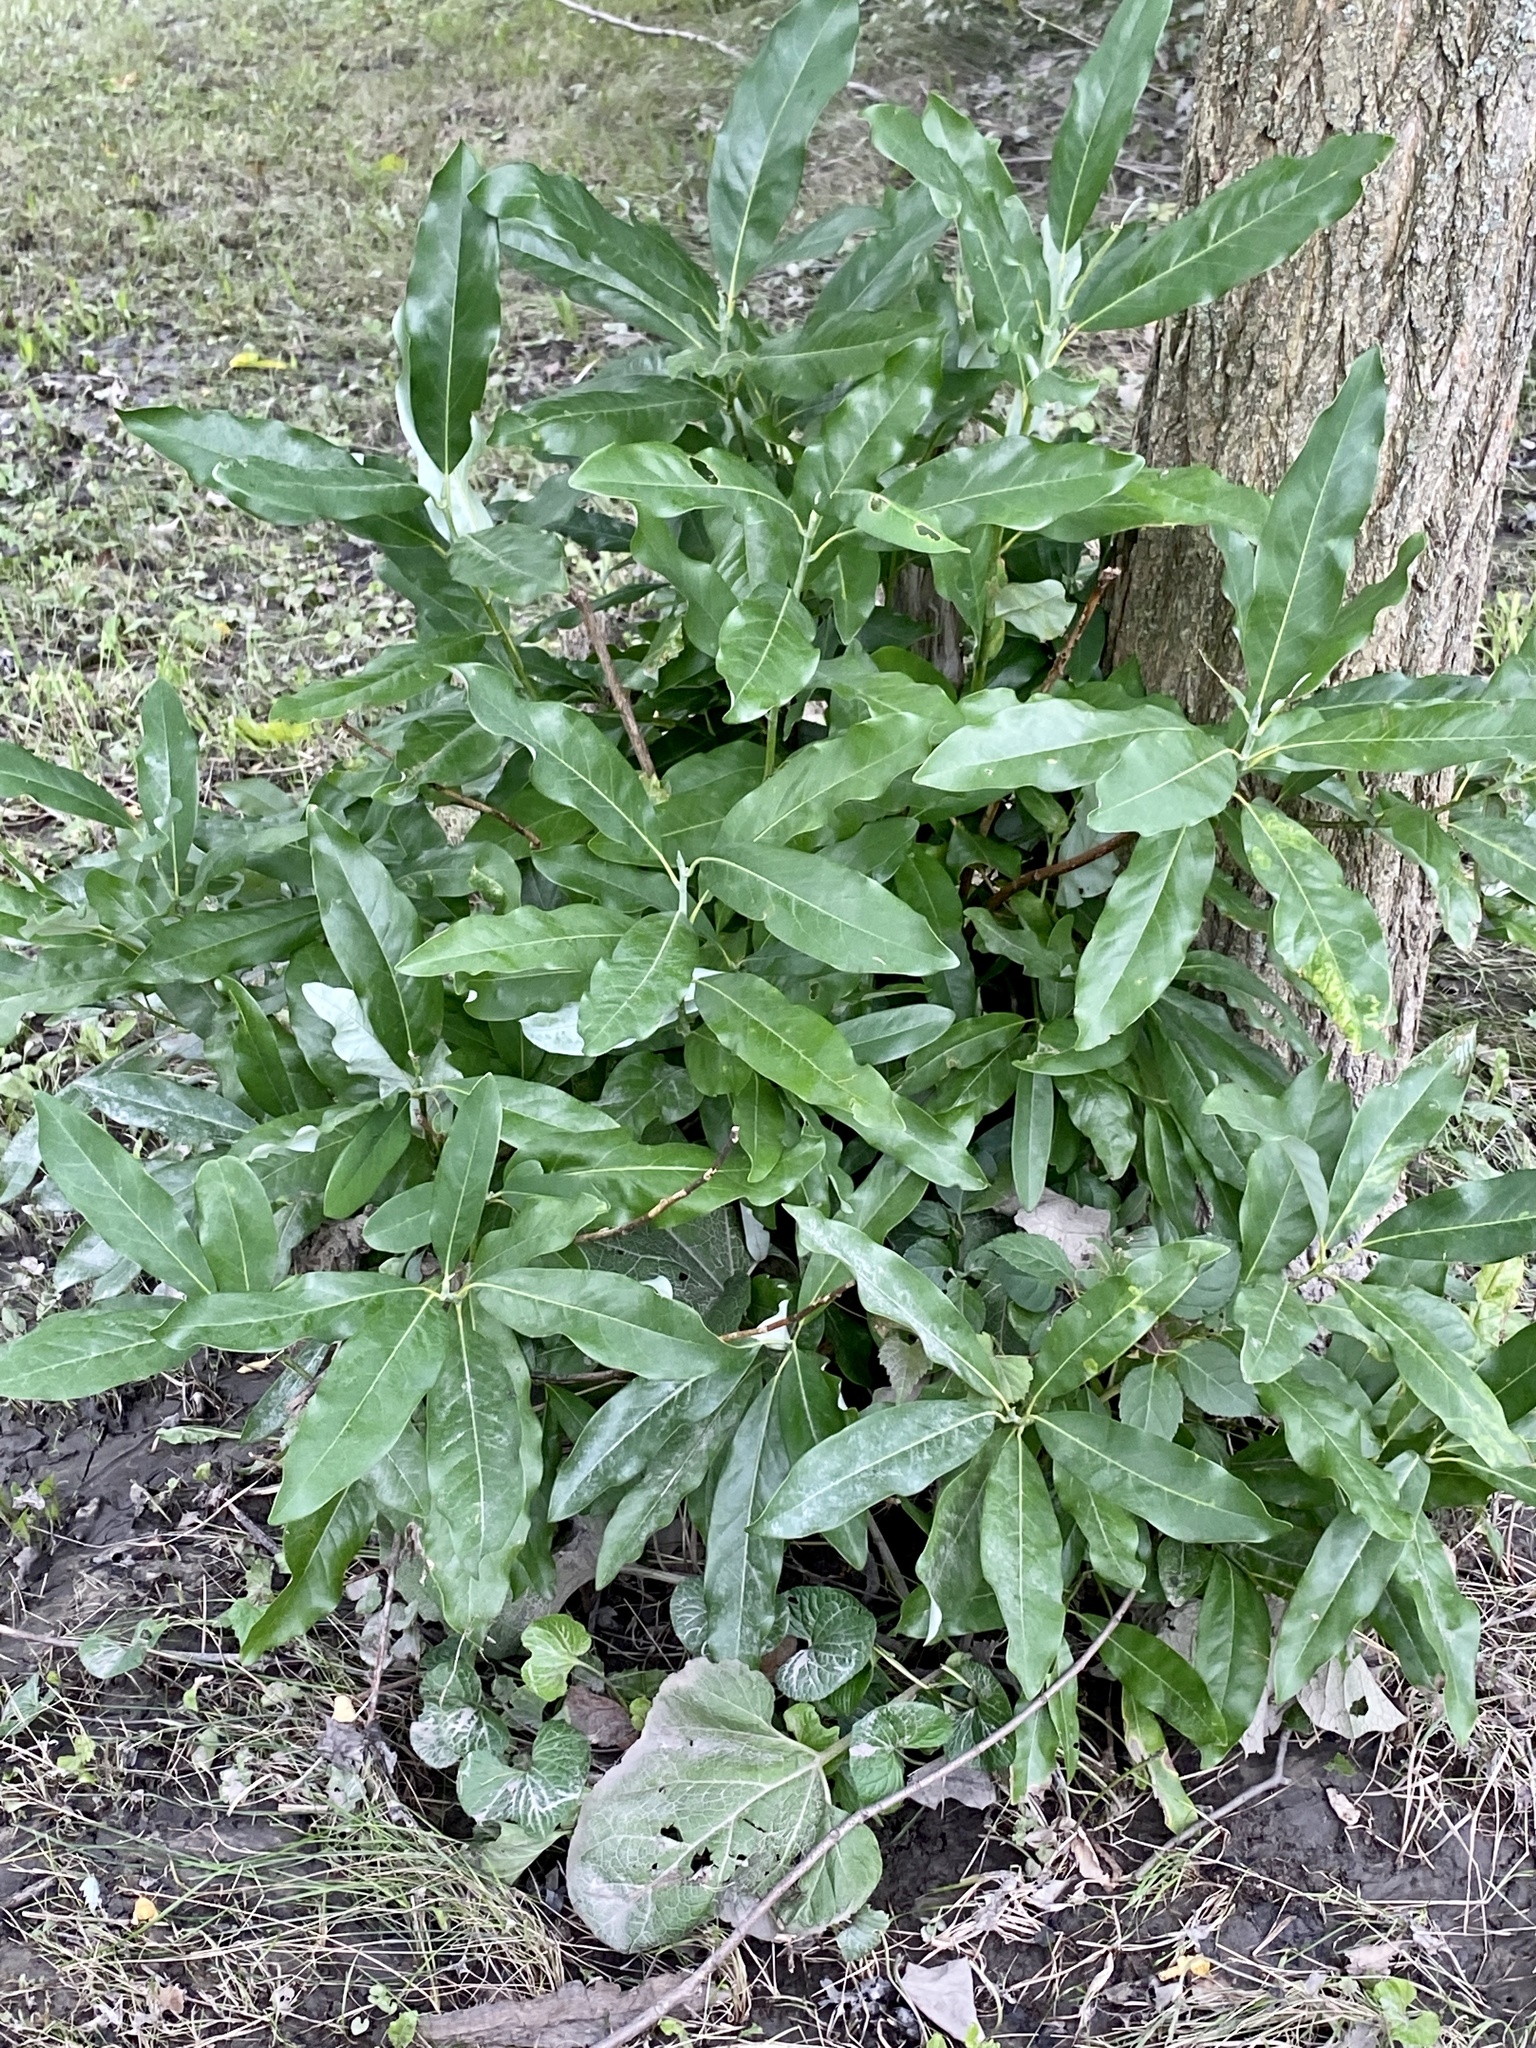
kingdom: Plantae
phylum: Tracheophyta
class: Magnoliopsida
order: Rosales
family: Elaeagnaceae
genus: Elaeagnus
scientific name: Elaeagnus umbellata
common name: Autumn olive
